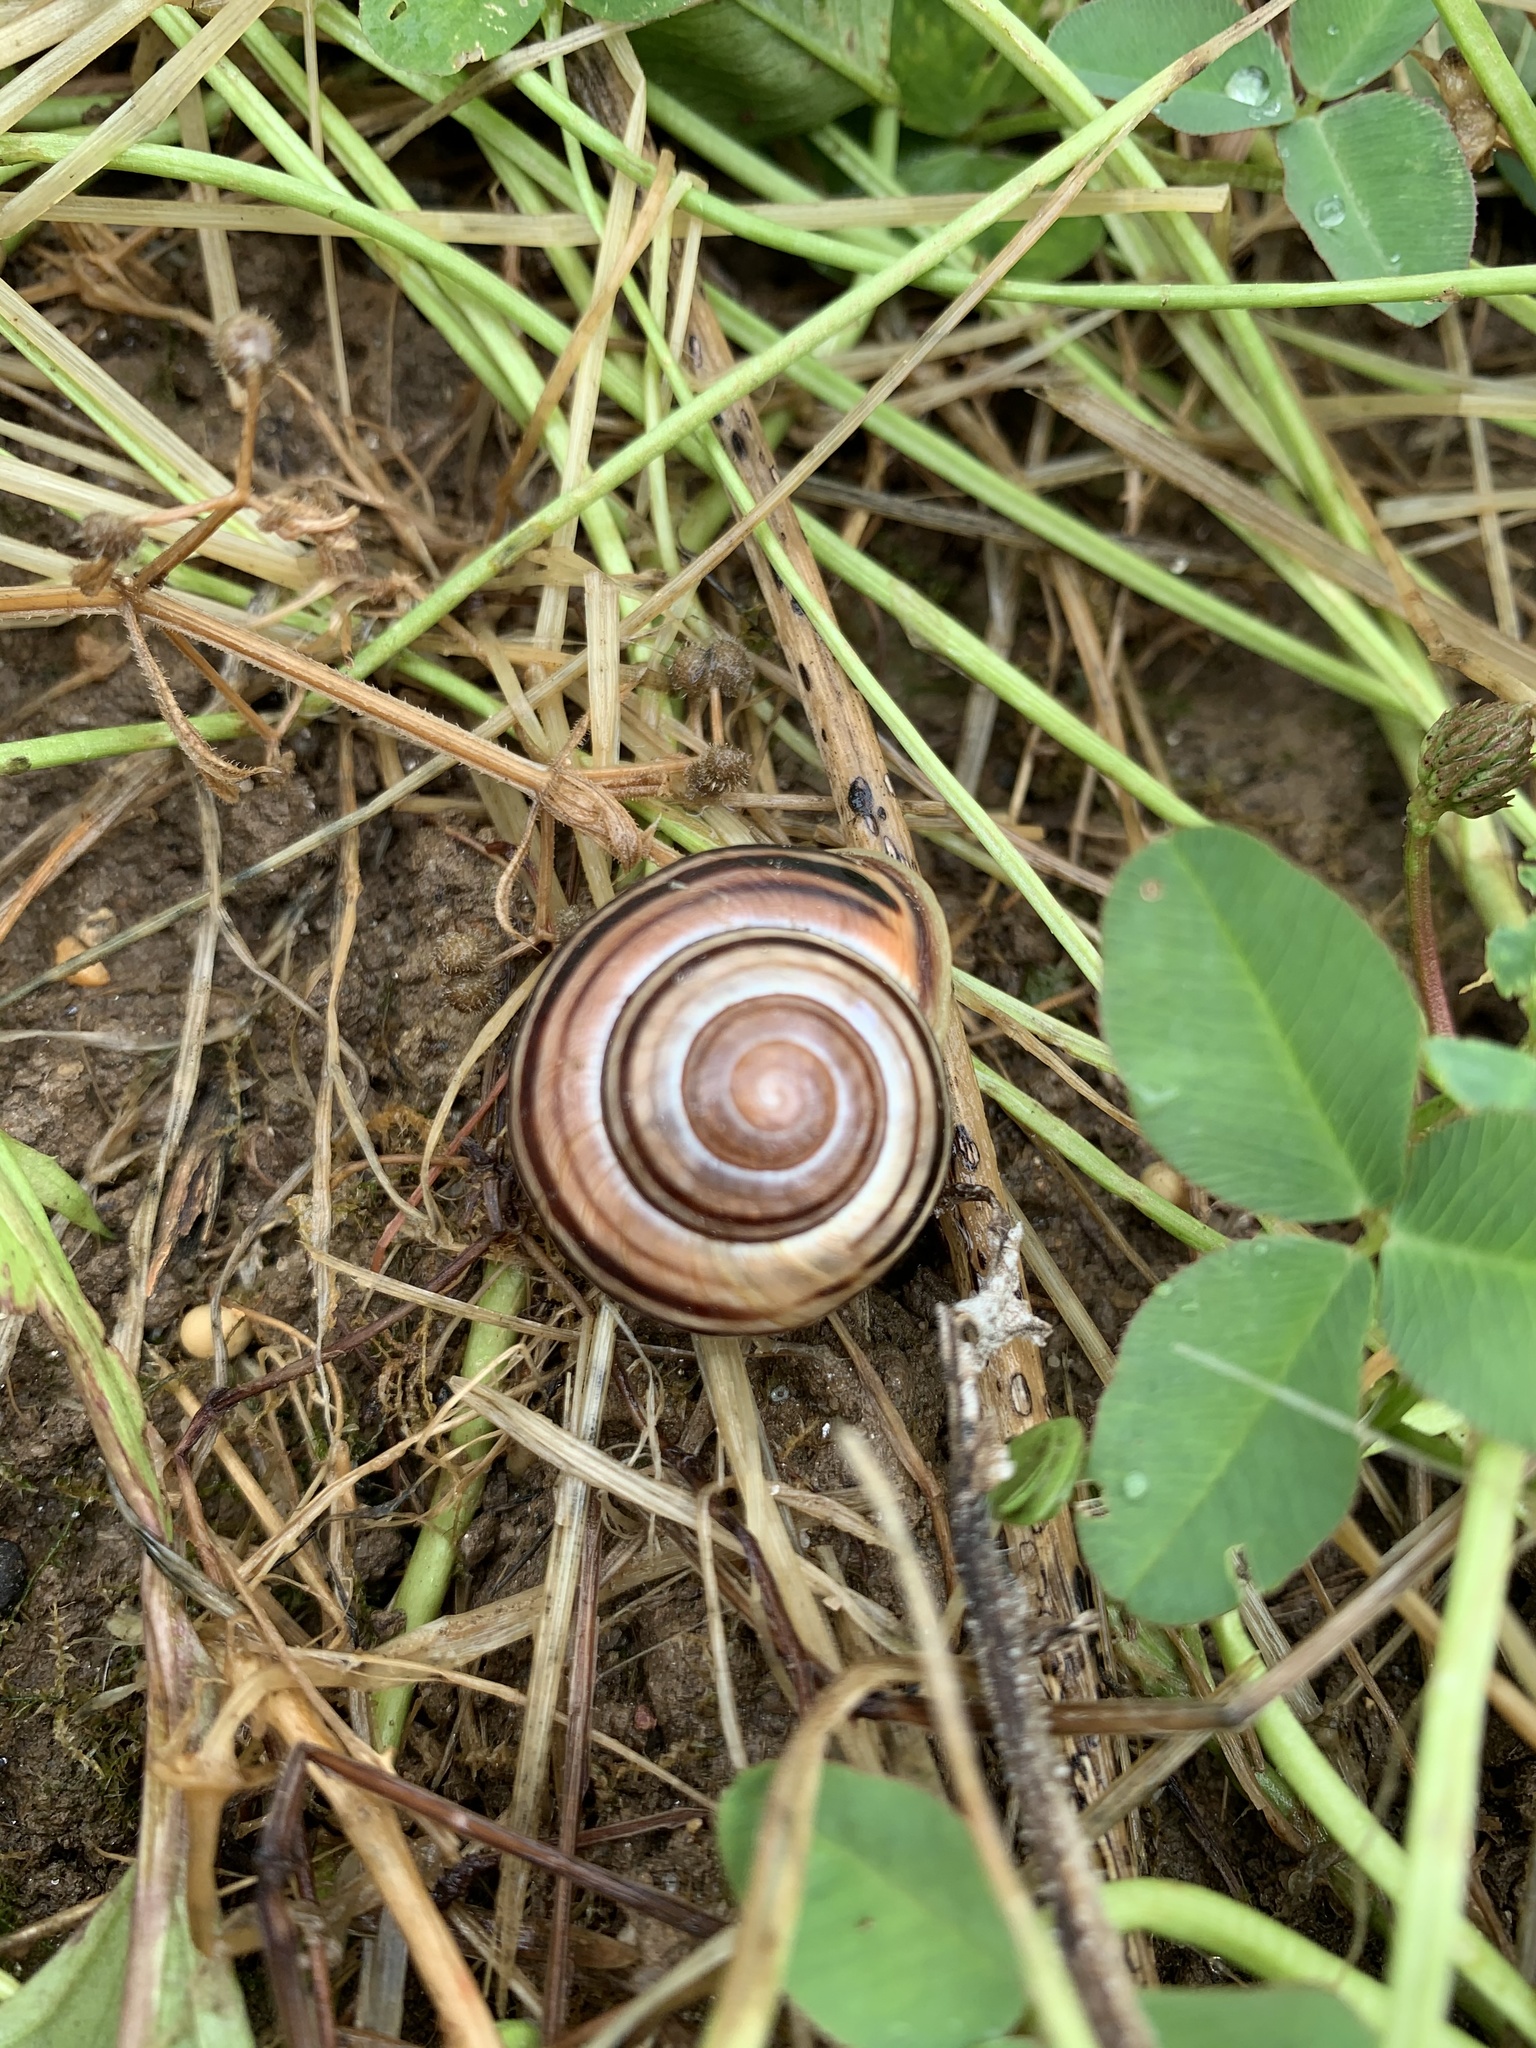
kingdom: Animalia
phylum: Mollusca
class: Gastropoda
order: Stylommatophora
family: Helicidae
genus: Cepaea
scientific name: Cepaea nemoralis
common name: Grovesnail
